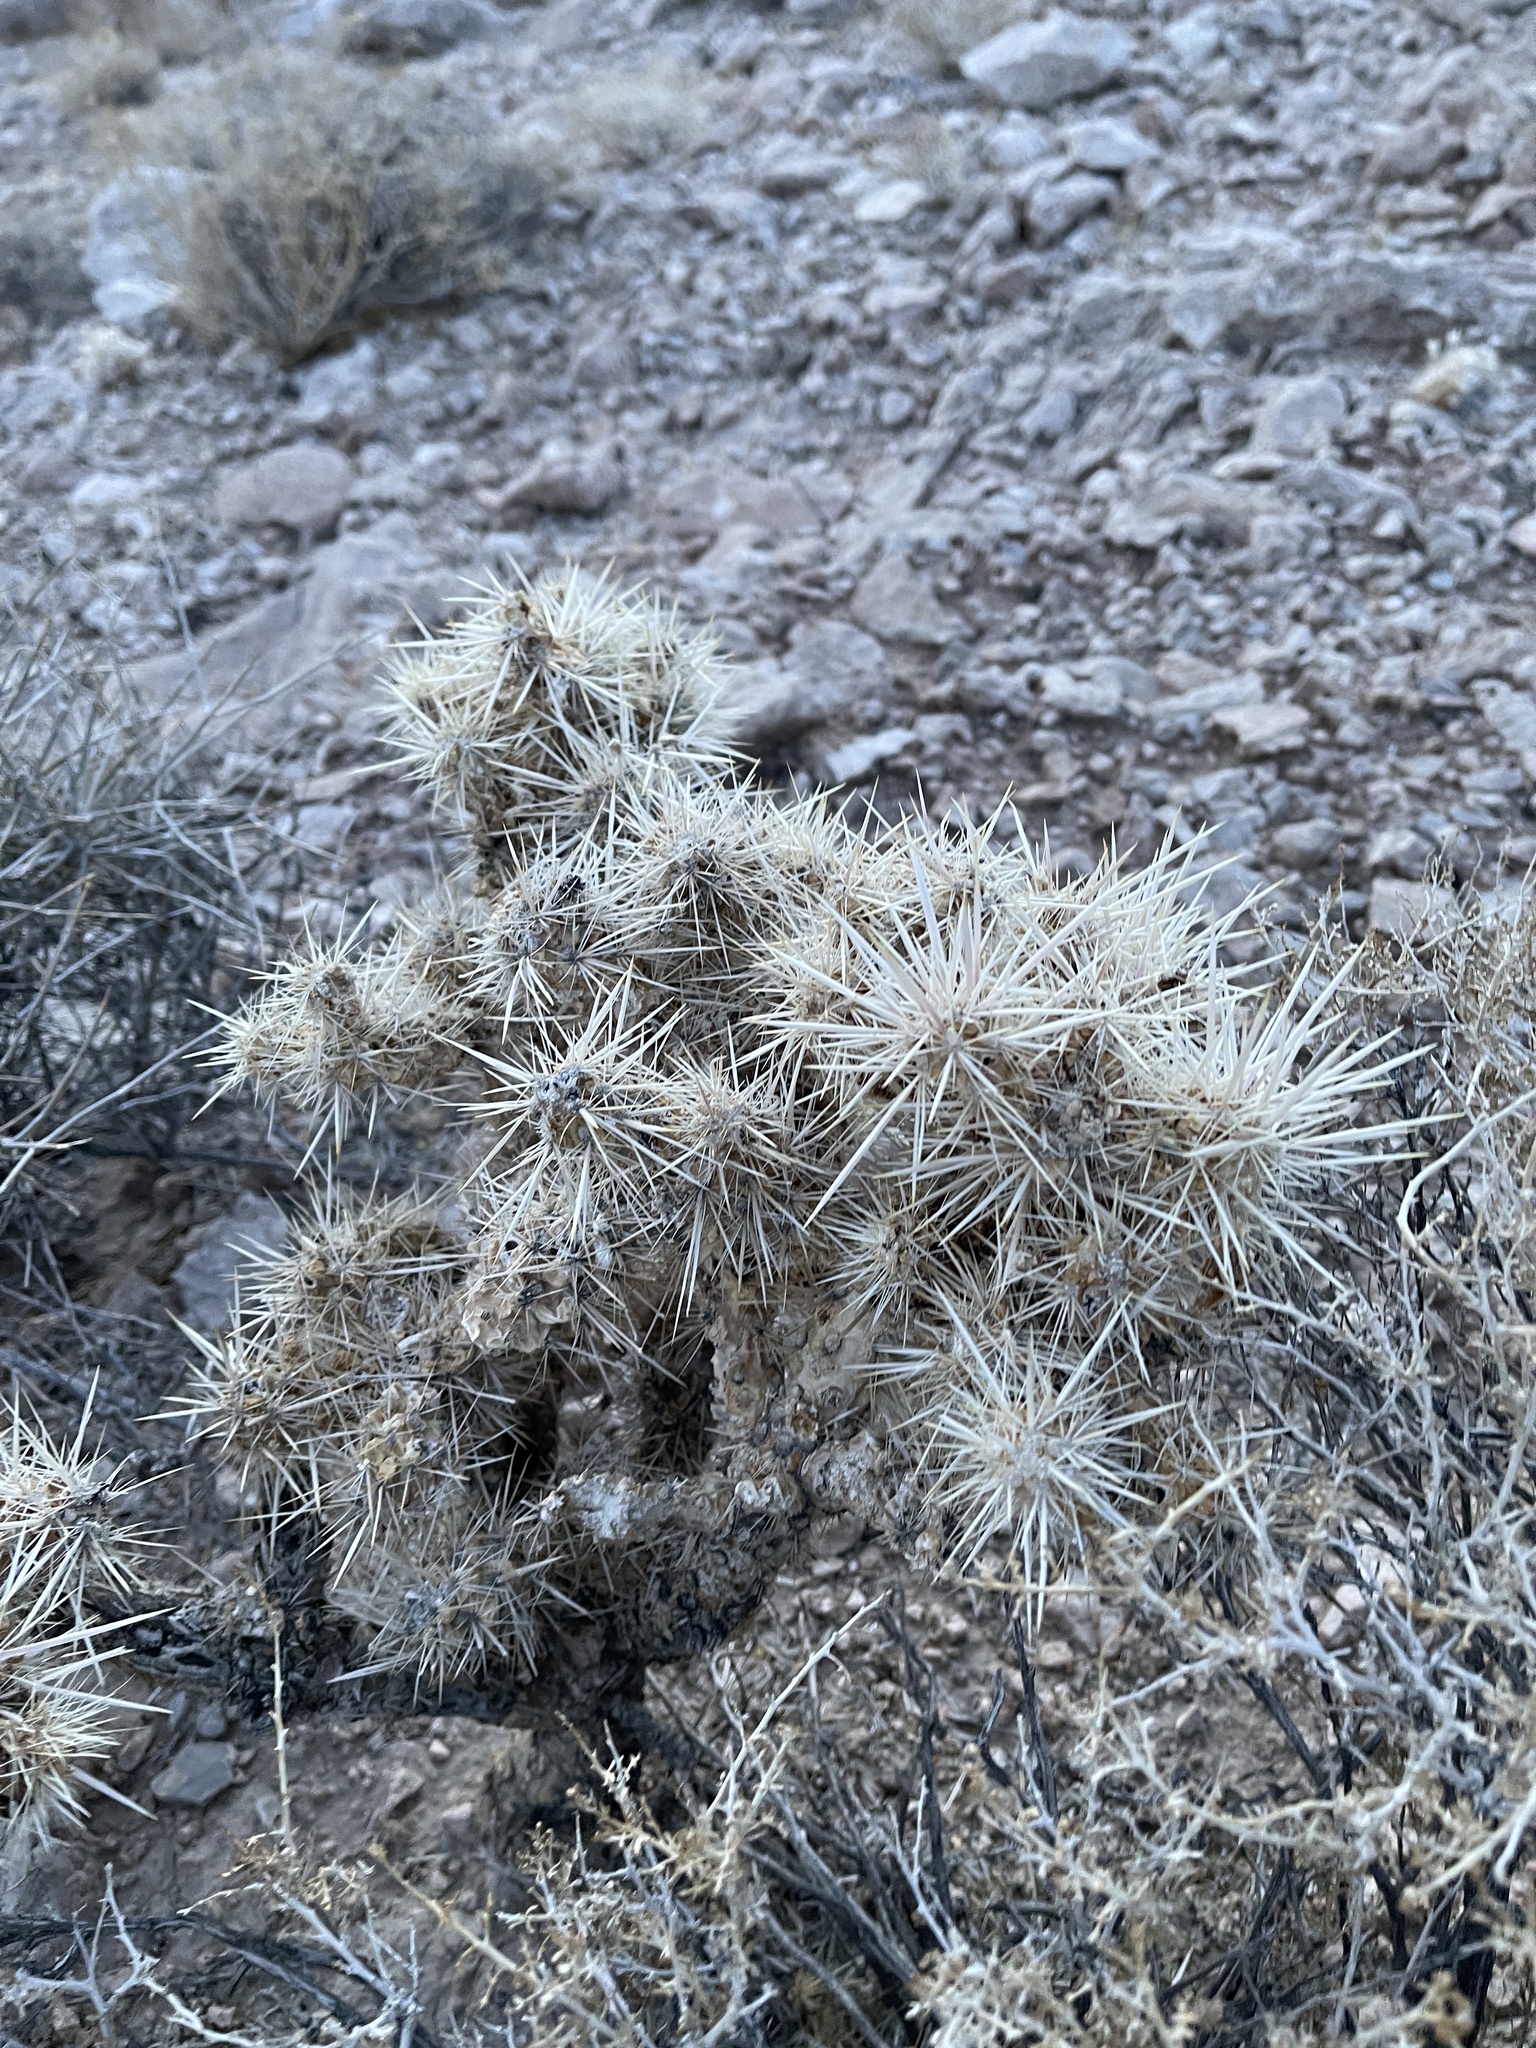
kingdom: Plantae
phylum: Tracheophyta
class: Magnoliopsida
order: Caryophyllales
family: Cactaceae
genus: Cylindropuntia
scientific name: Cylindropuntia echinocarpa
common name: Ground cholla
